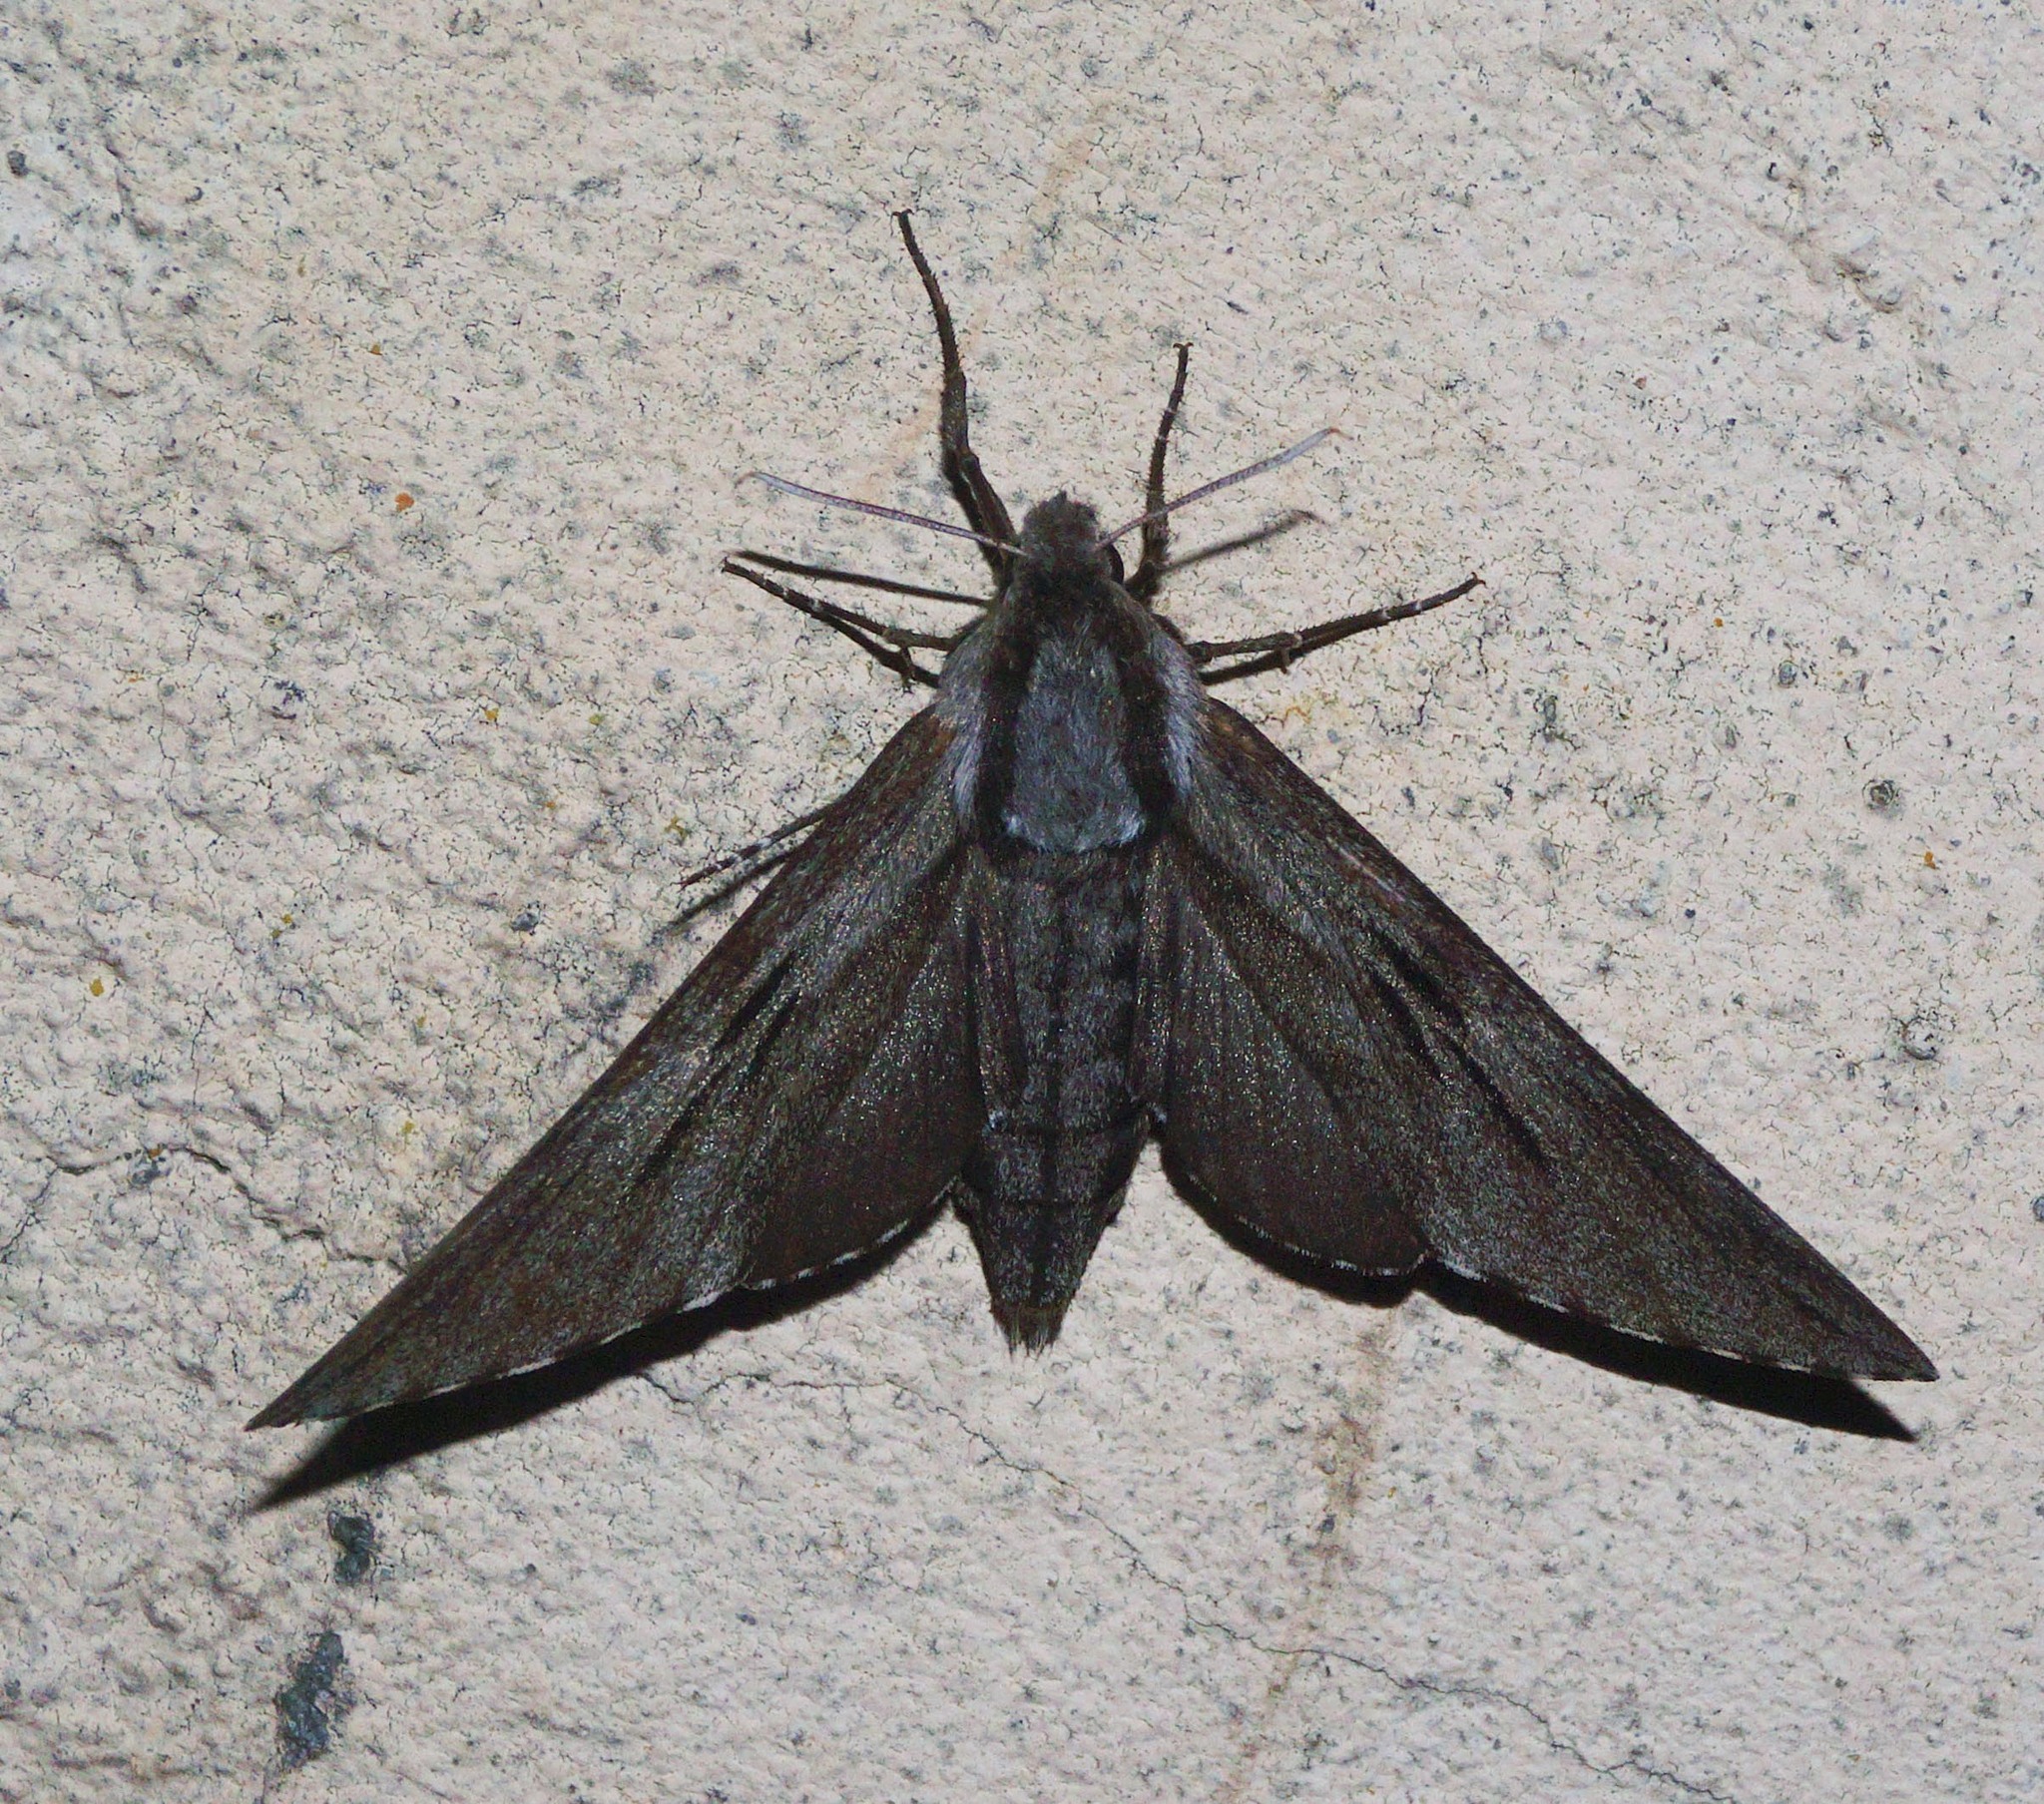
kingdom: Animalia
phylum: Arthropoda
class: Insecta
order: Lepidoptera
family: Sphingidae
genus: Sphinx
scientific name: Sphinx pinastri
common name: Pine hawk-moth
